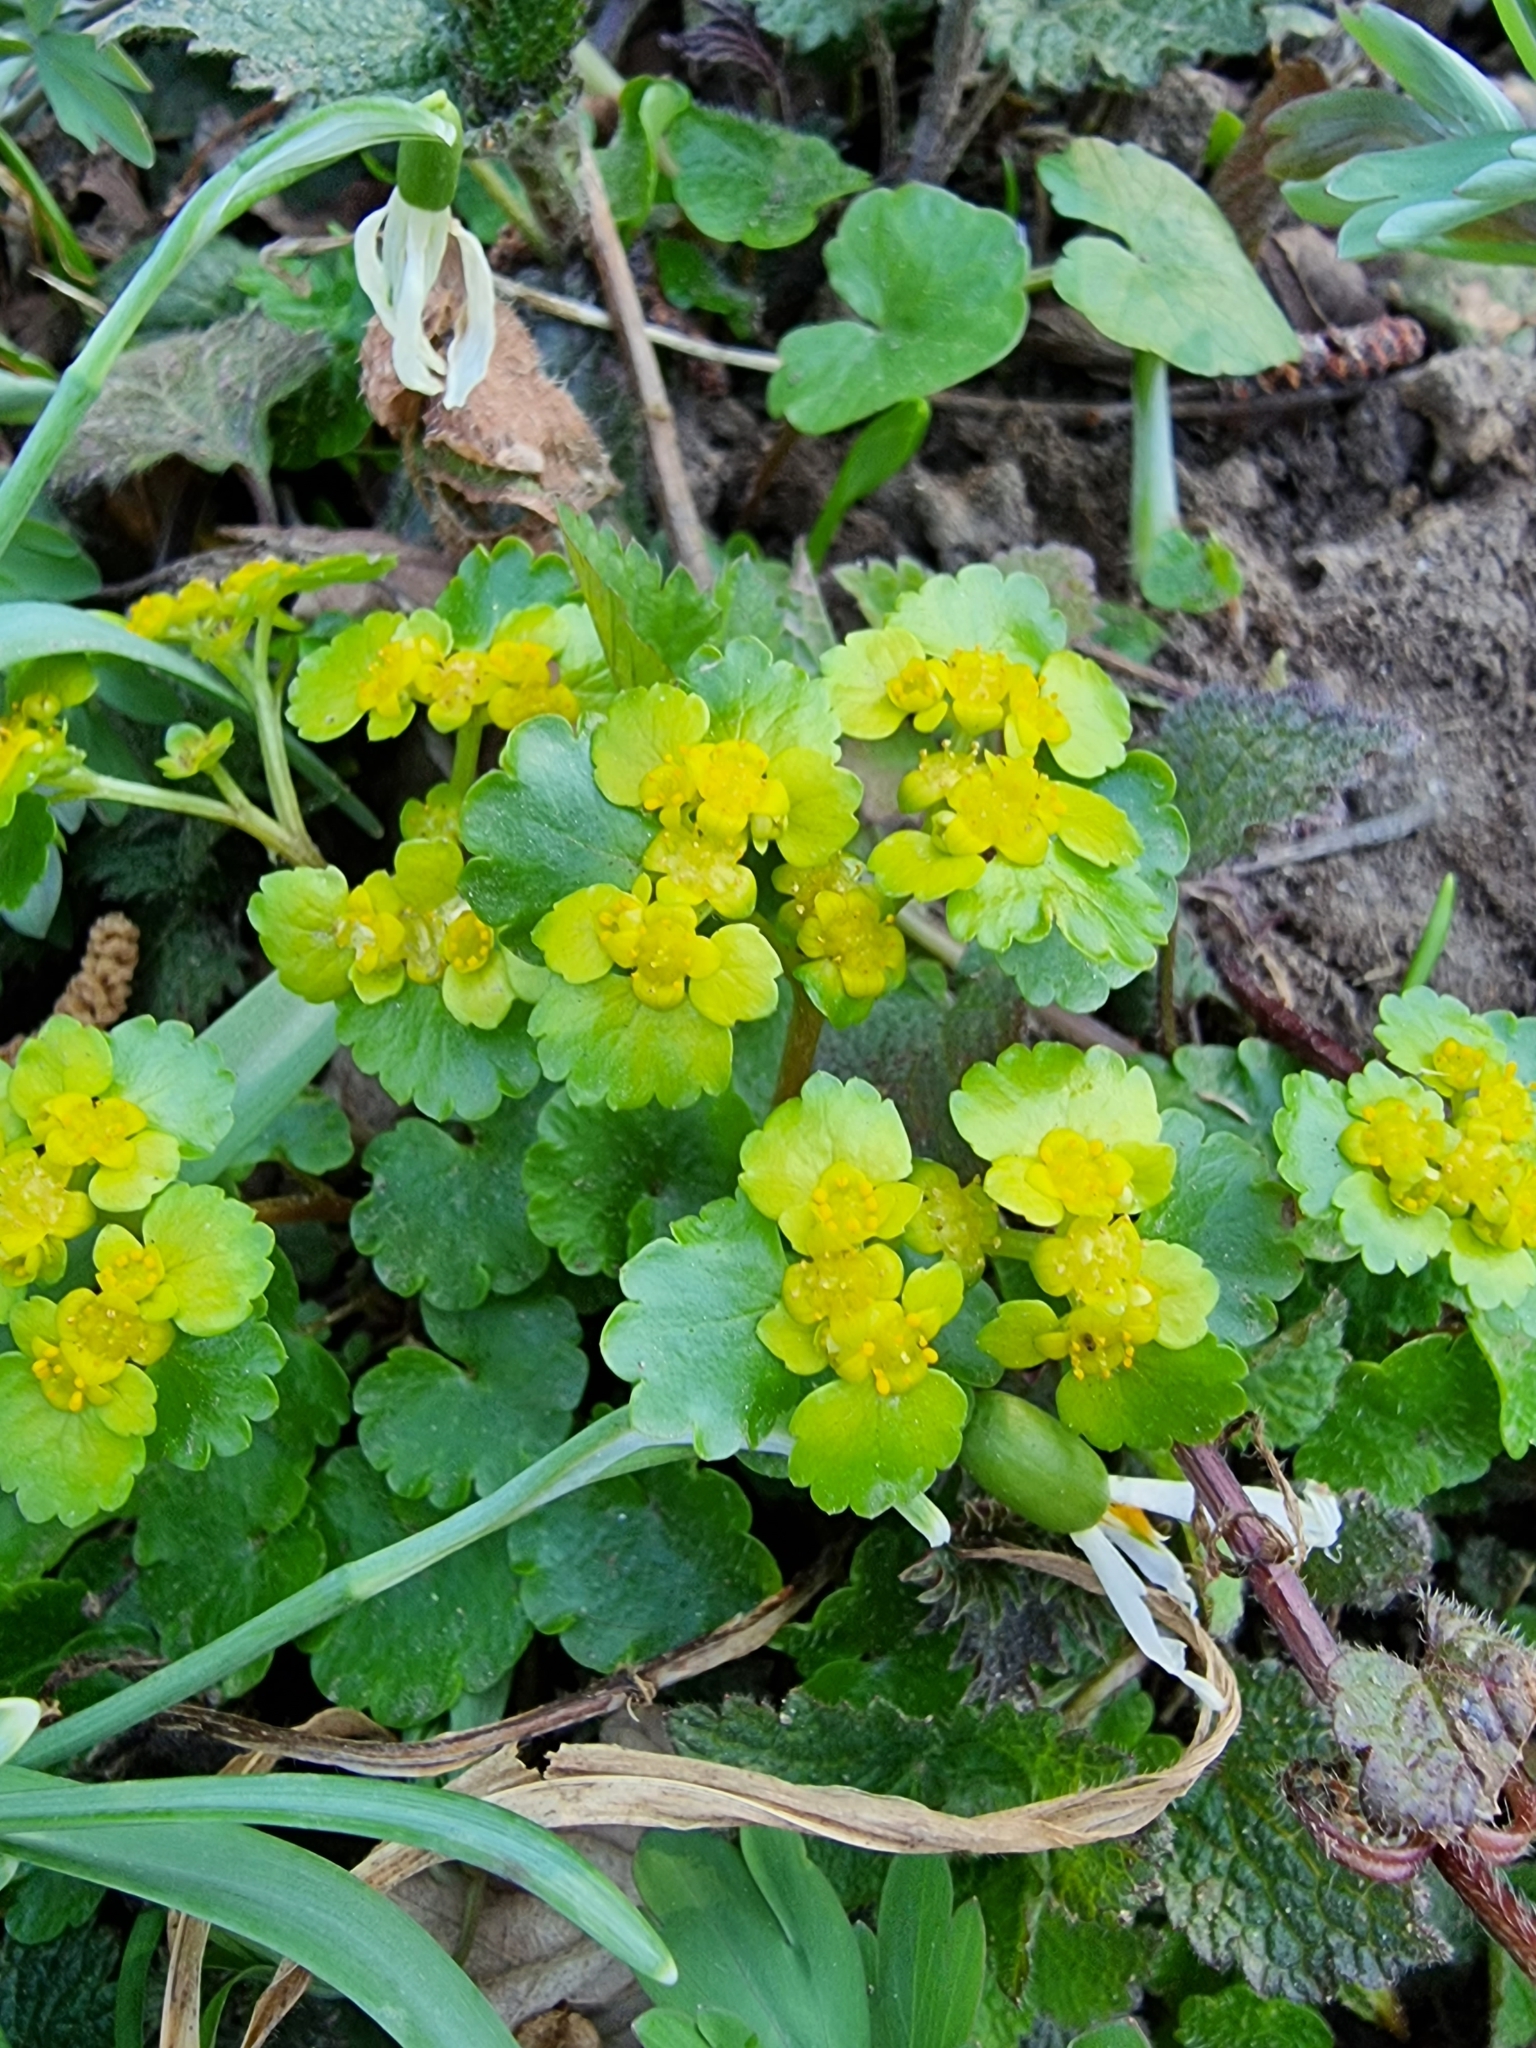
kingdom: Plantae
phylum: Tracheophyta
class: Magnoliopsida
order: Saxifragales
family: Saxifragaceae
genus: Chrysosplenium
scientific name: Chrysosplenium alternifolium
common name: Alternate-leaved golden-saxifrage
